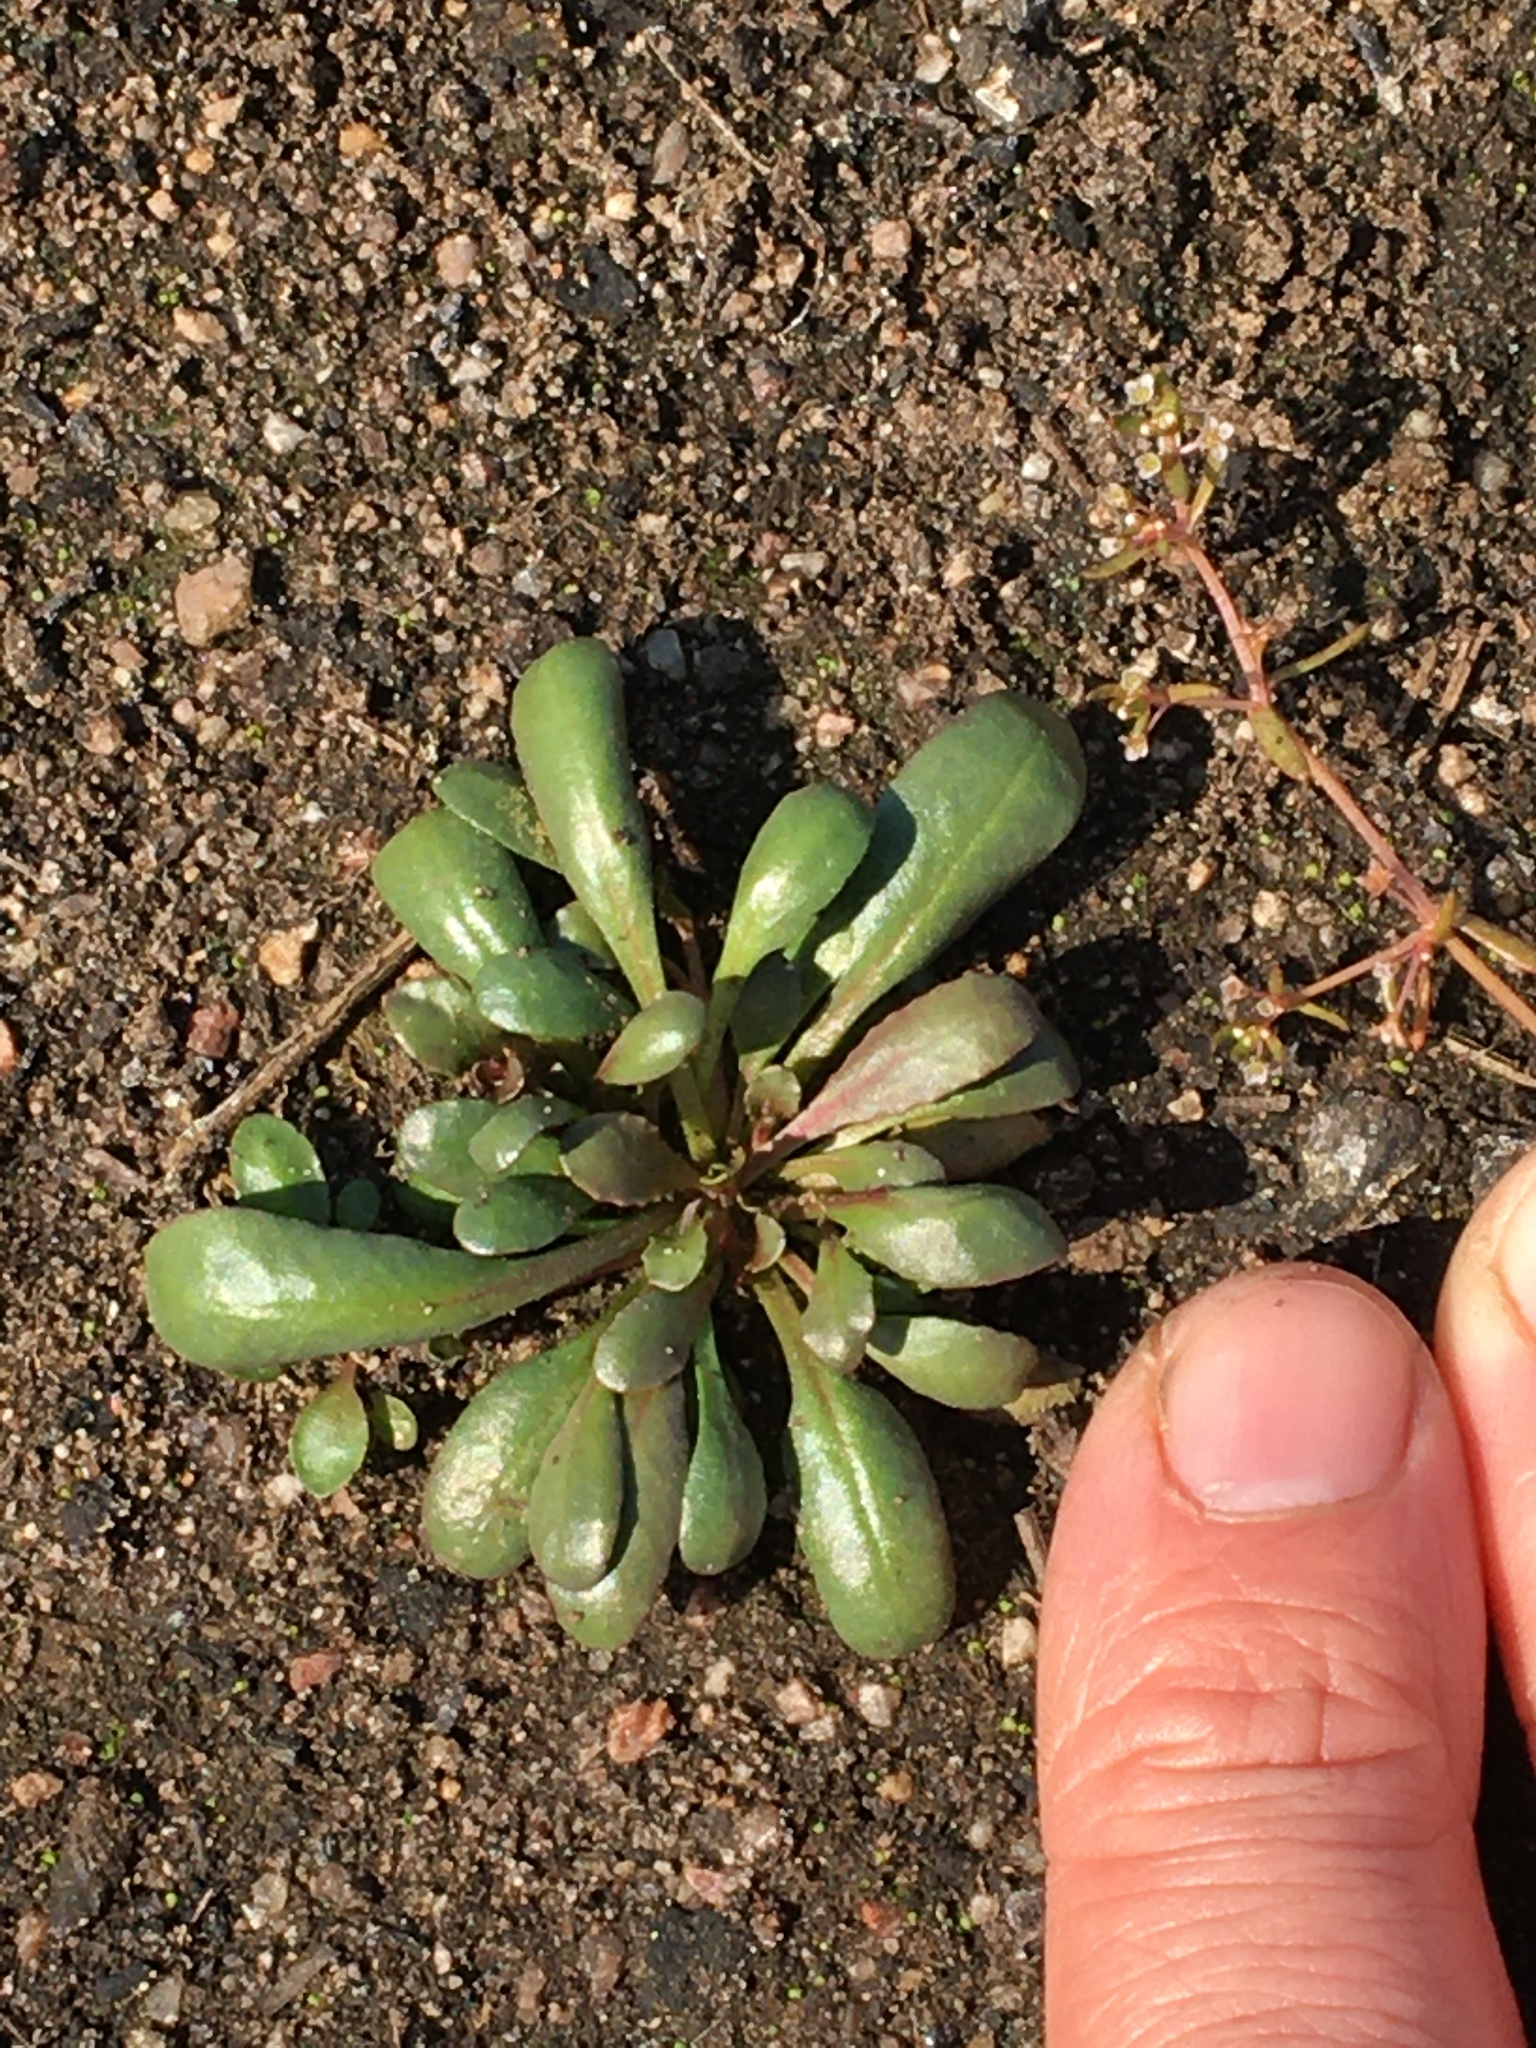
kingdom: Plantae
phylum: Tracheophyta
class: Magnoliopsida
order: Asterales
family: Campanulaceae
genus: Wimmerella
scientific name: Wimmerella arabidea
